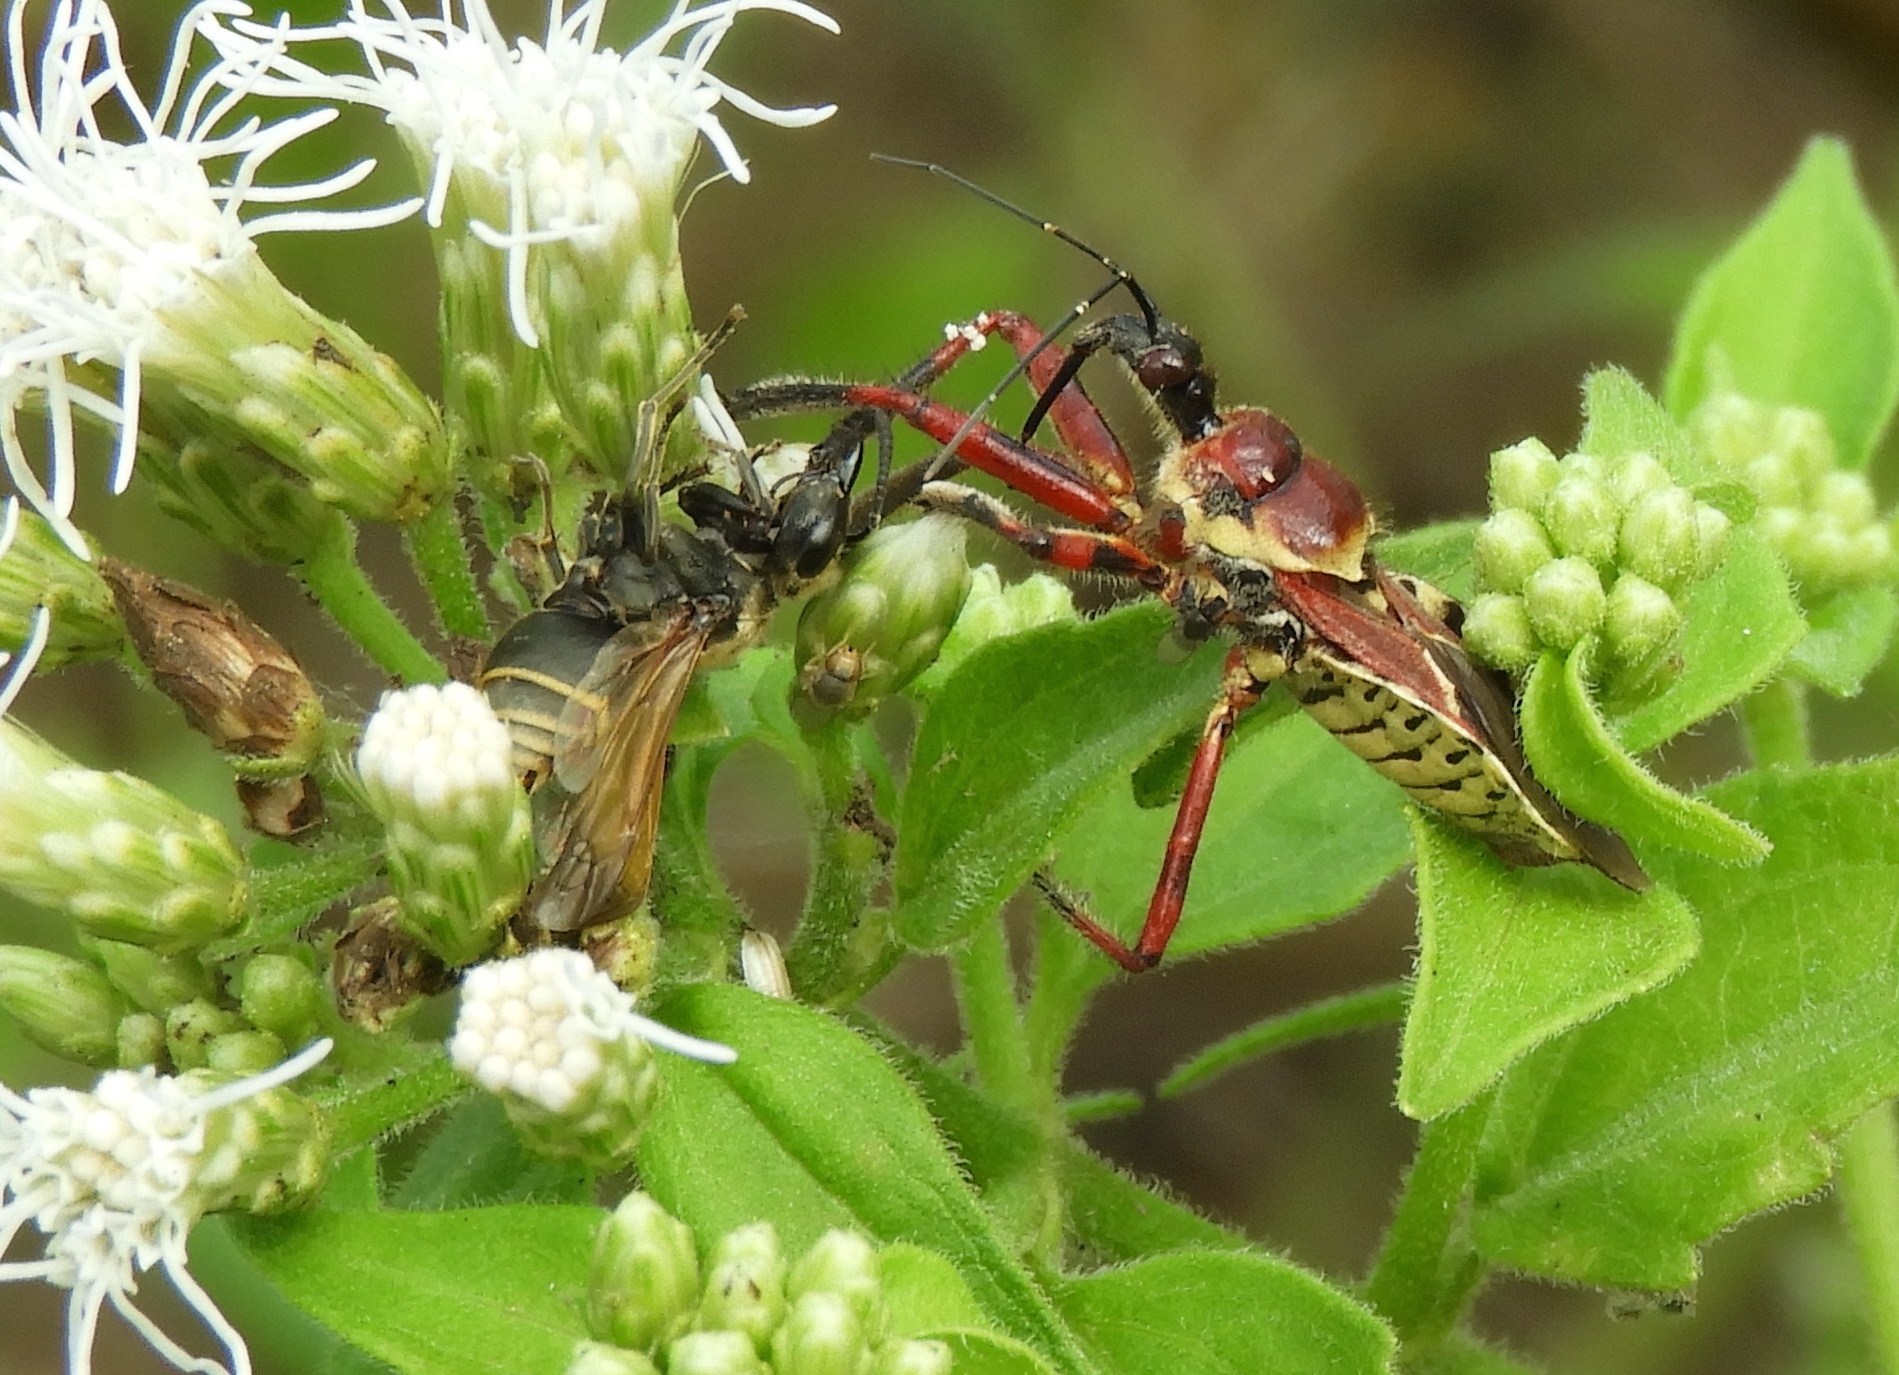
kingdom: Animalia
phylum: Arthropoda
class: Insecta
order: Hemiptera
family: Reduviidae
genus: Apiomerus
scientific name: Apiomerus
